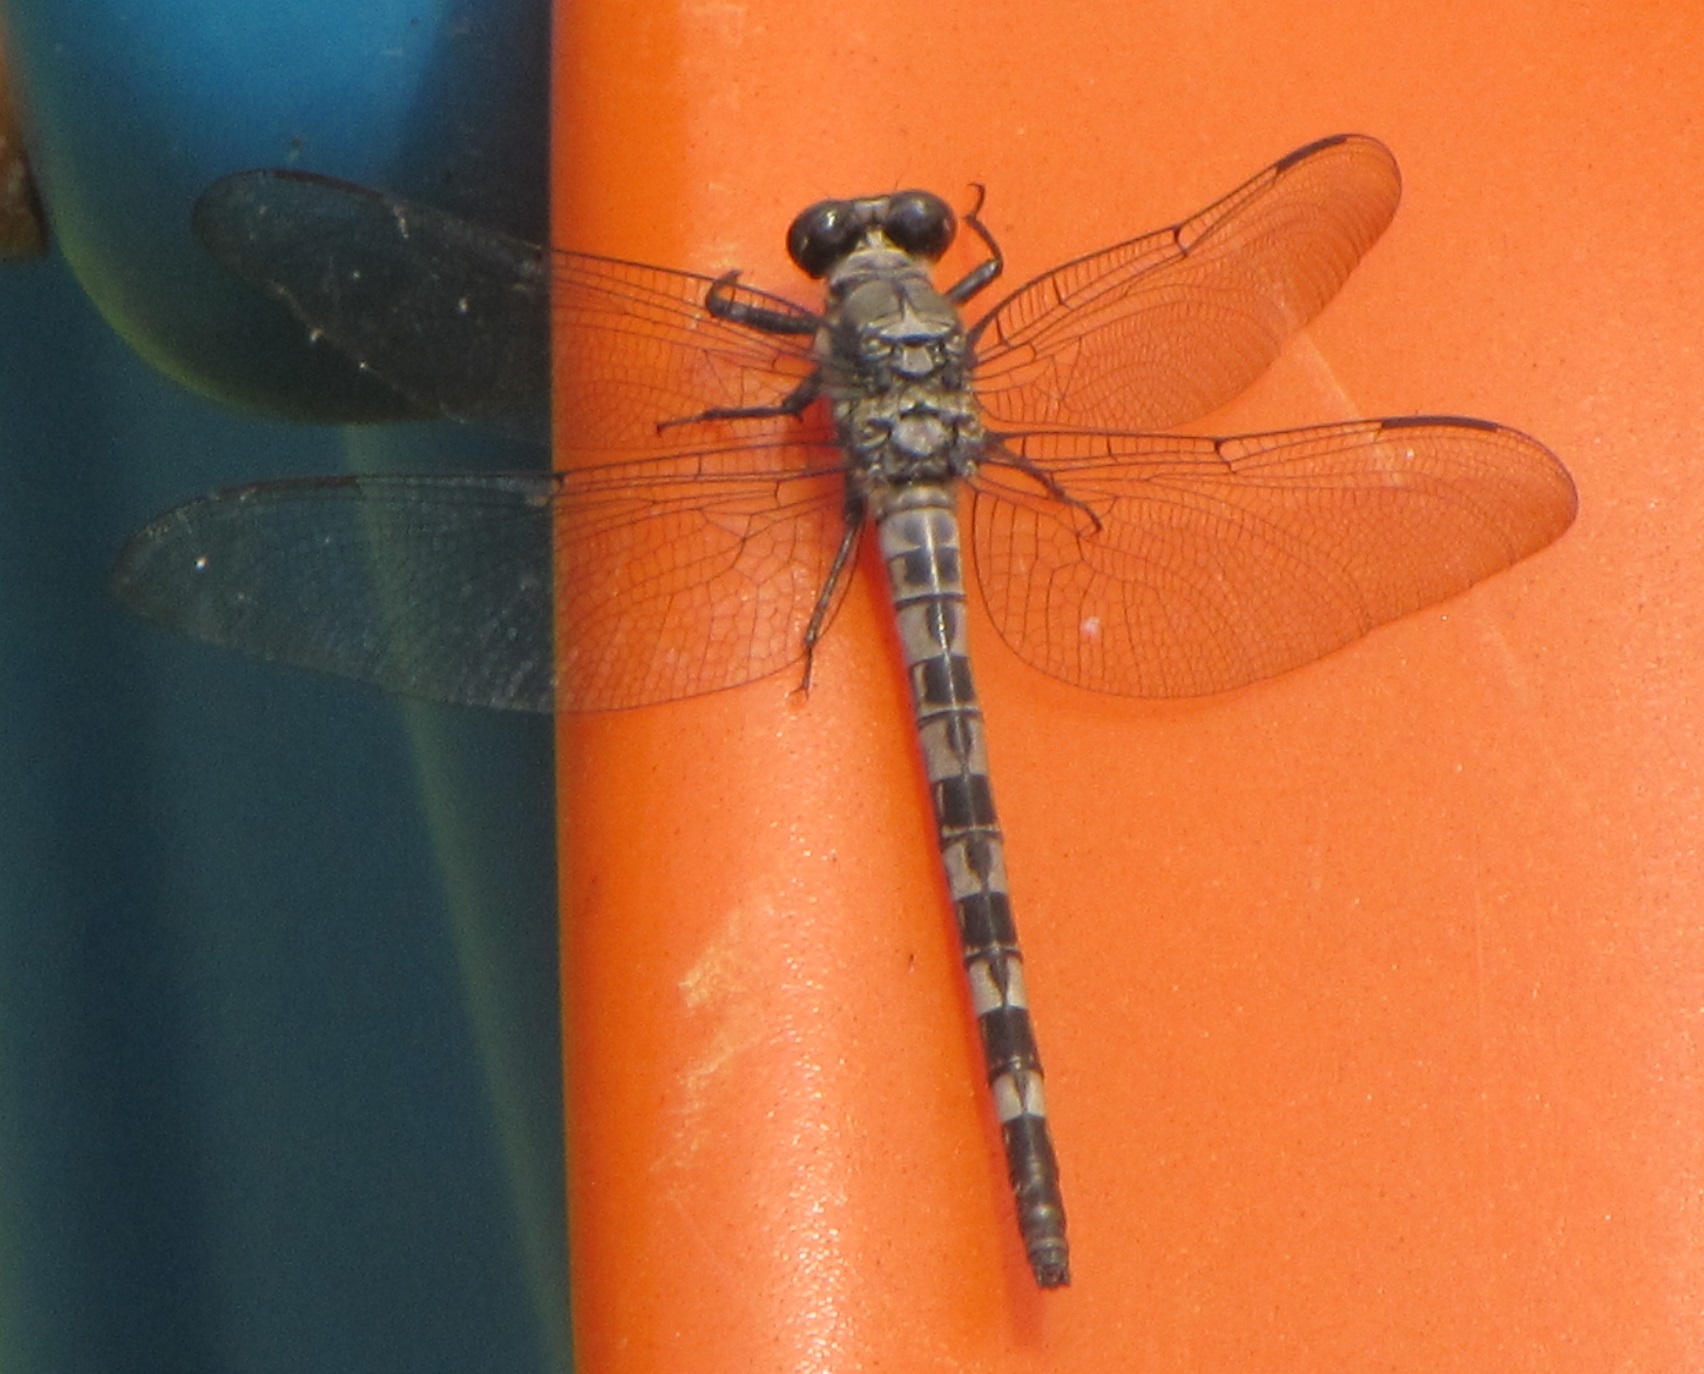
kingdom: Animalia
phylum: Arthropoda
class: Insecta
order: Odonata
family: Petaluridae
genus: Tachopteryx
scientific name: Tachopteryx thoreyi
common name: Gray petaltail
